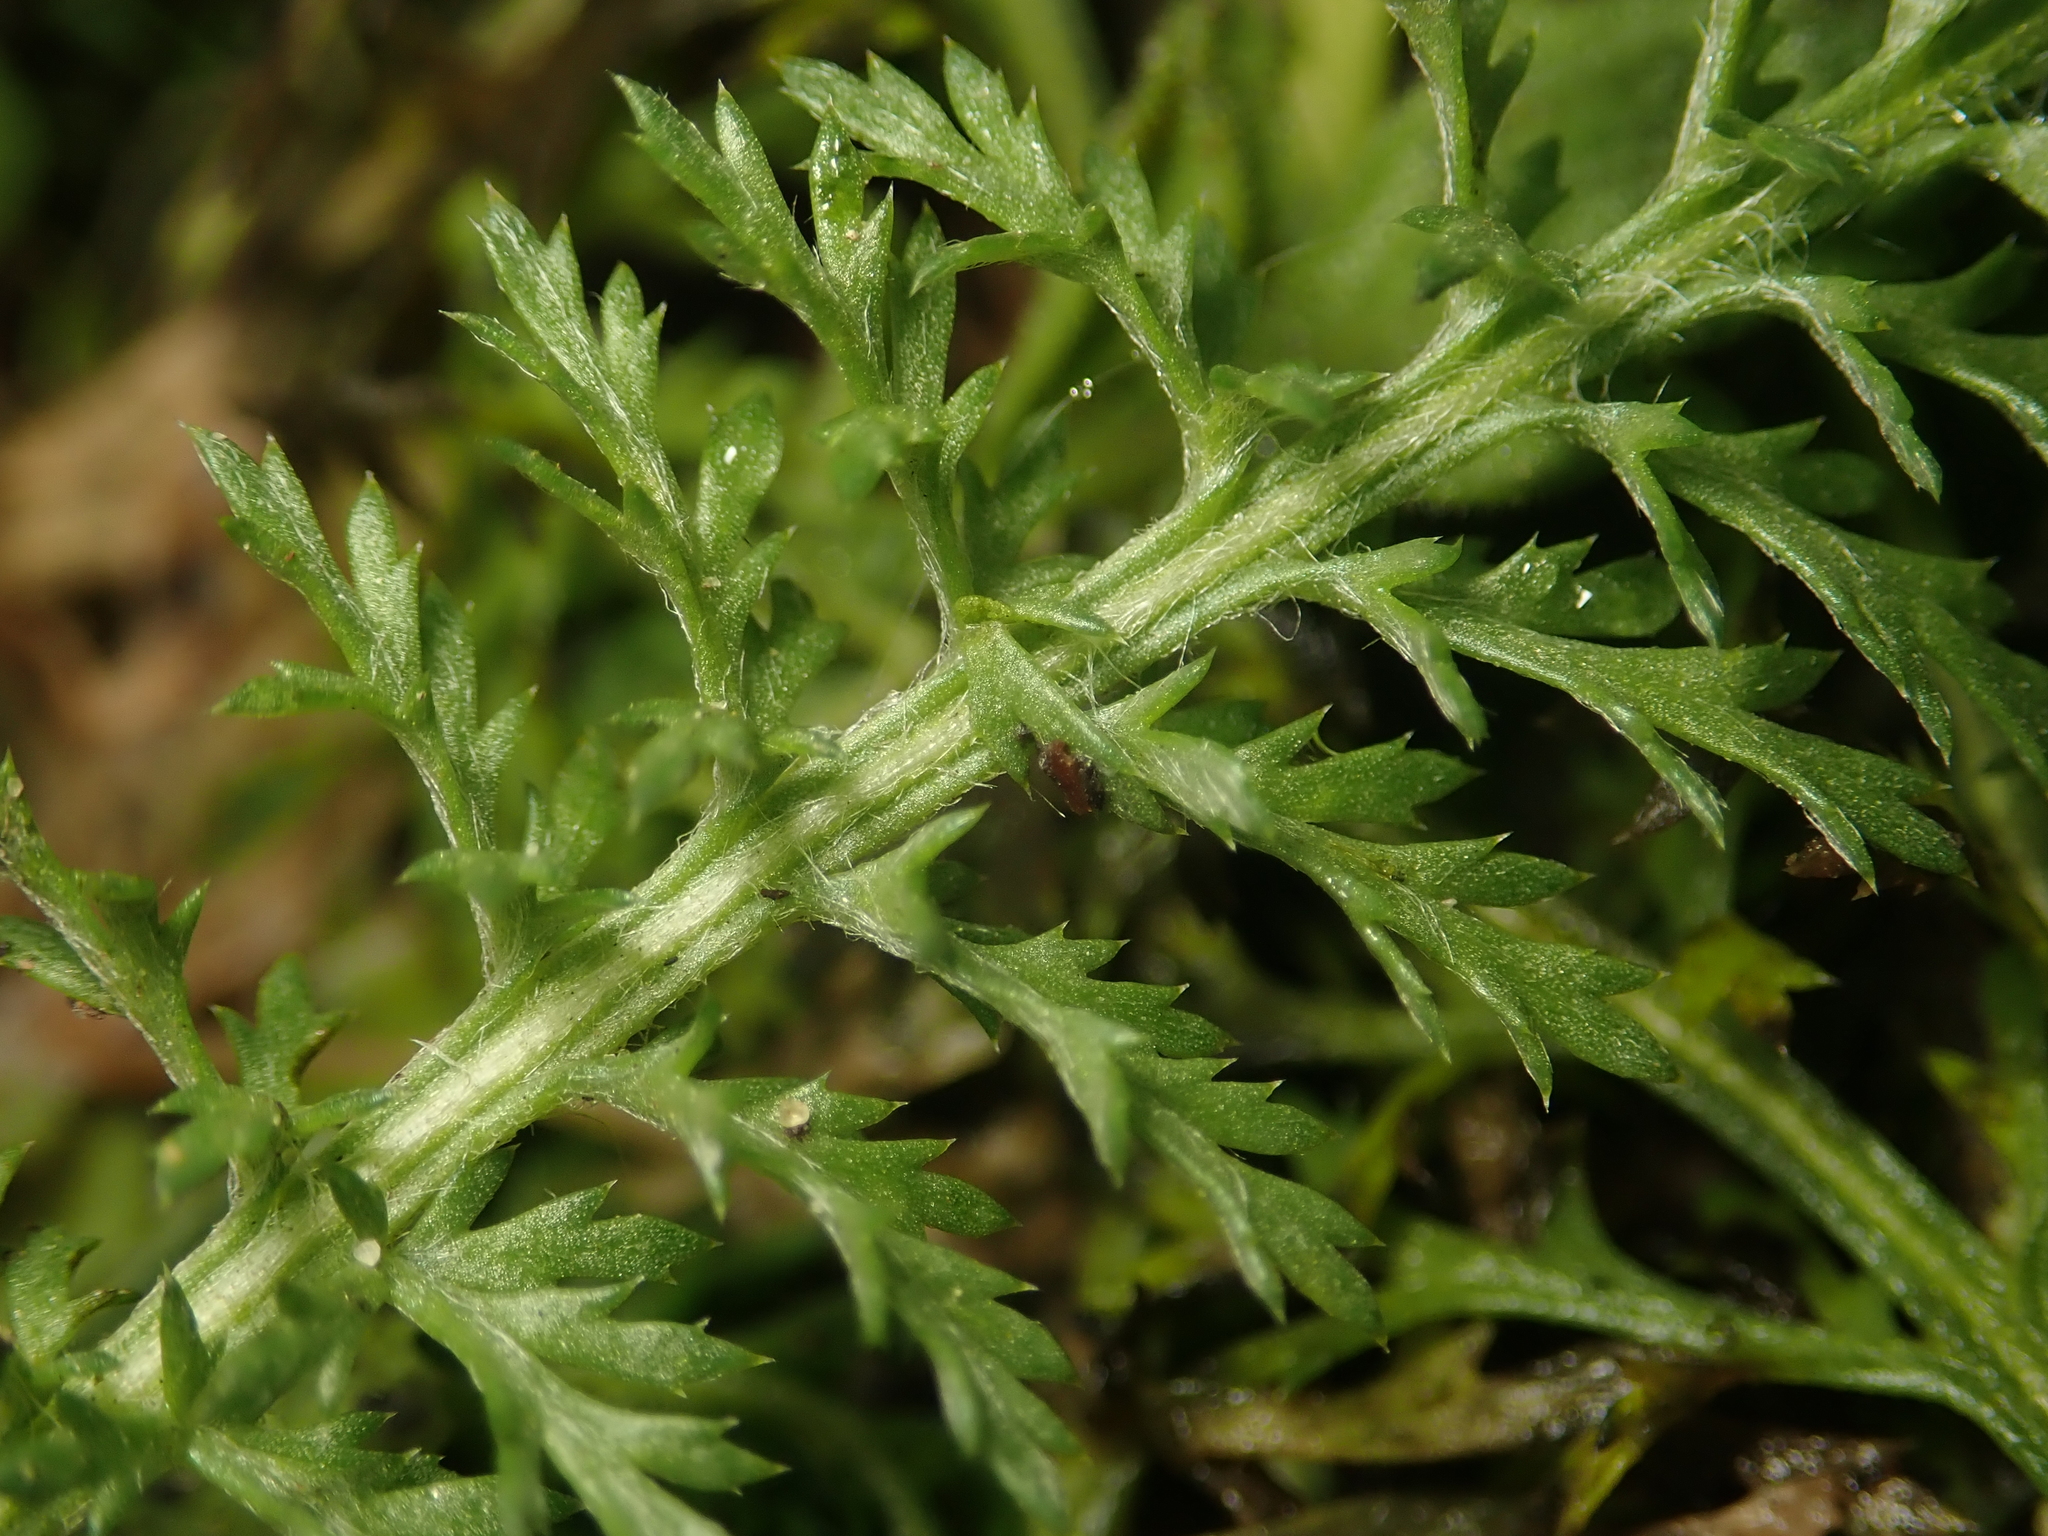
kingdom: Plantae
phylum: Tracheophyta
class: Magnoliopsida
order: Asterales
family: Asteraceae
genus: Achillea
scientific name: Achillea millefolium
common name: Yarrow
